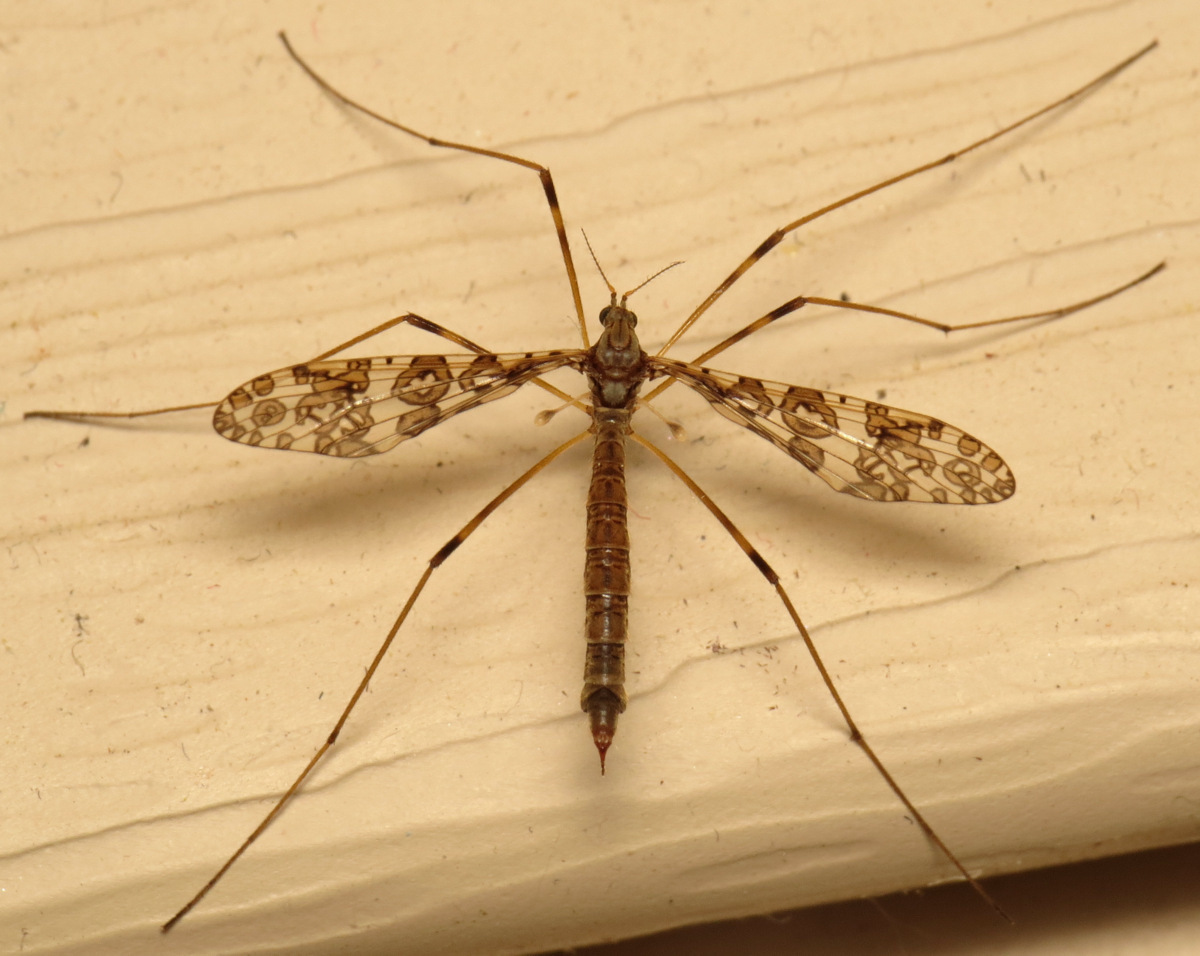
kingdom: Animalia
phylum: Arthropoda
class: Insecta
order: Diptera
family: Limoniidae
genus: Epiphragma
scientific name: Epiphragma fasciapenne
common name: Band-winged crane fly
